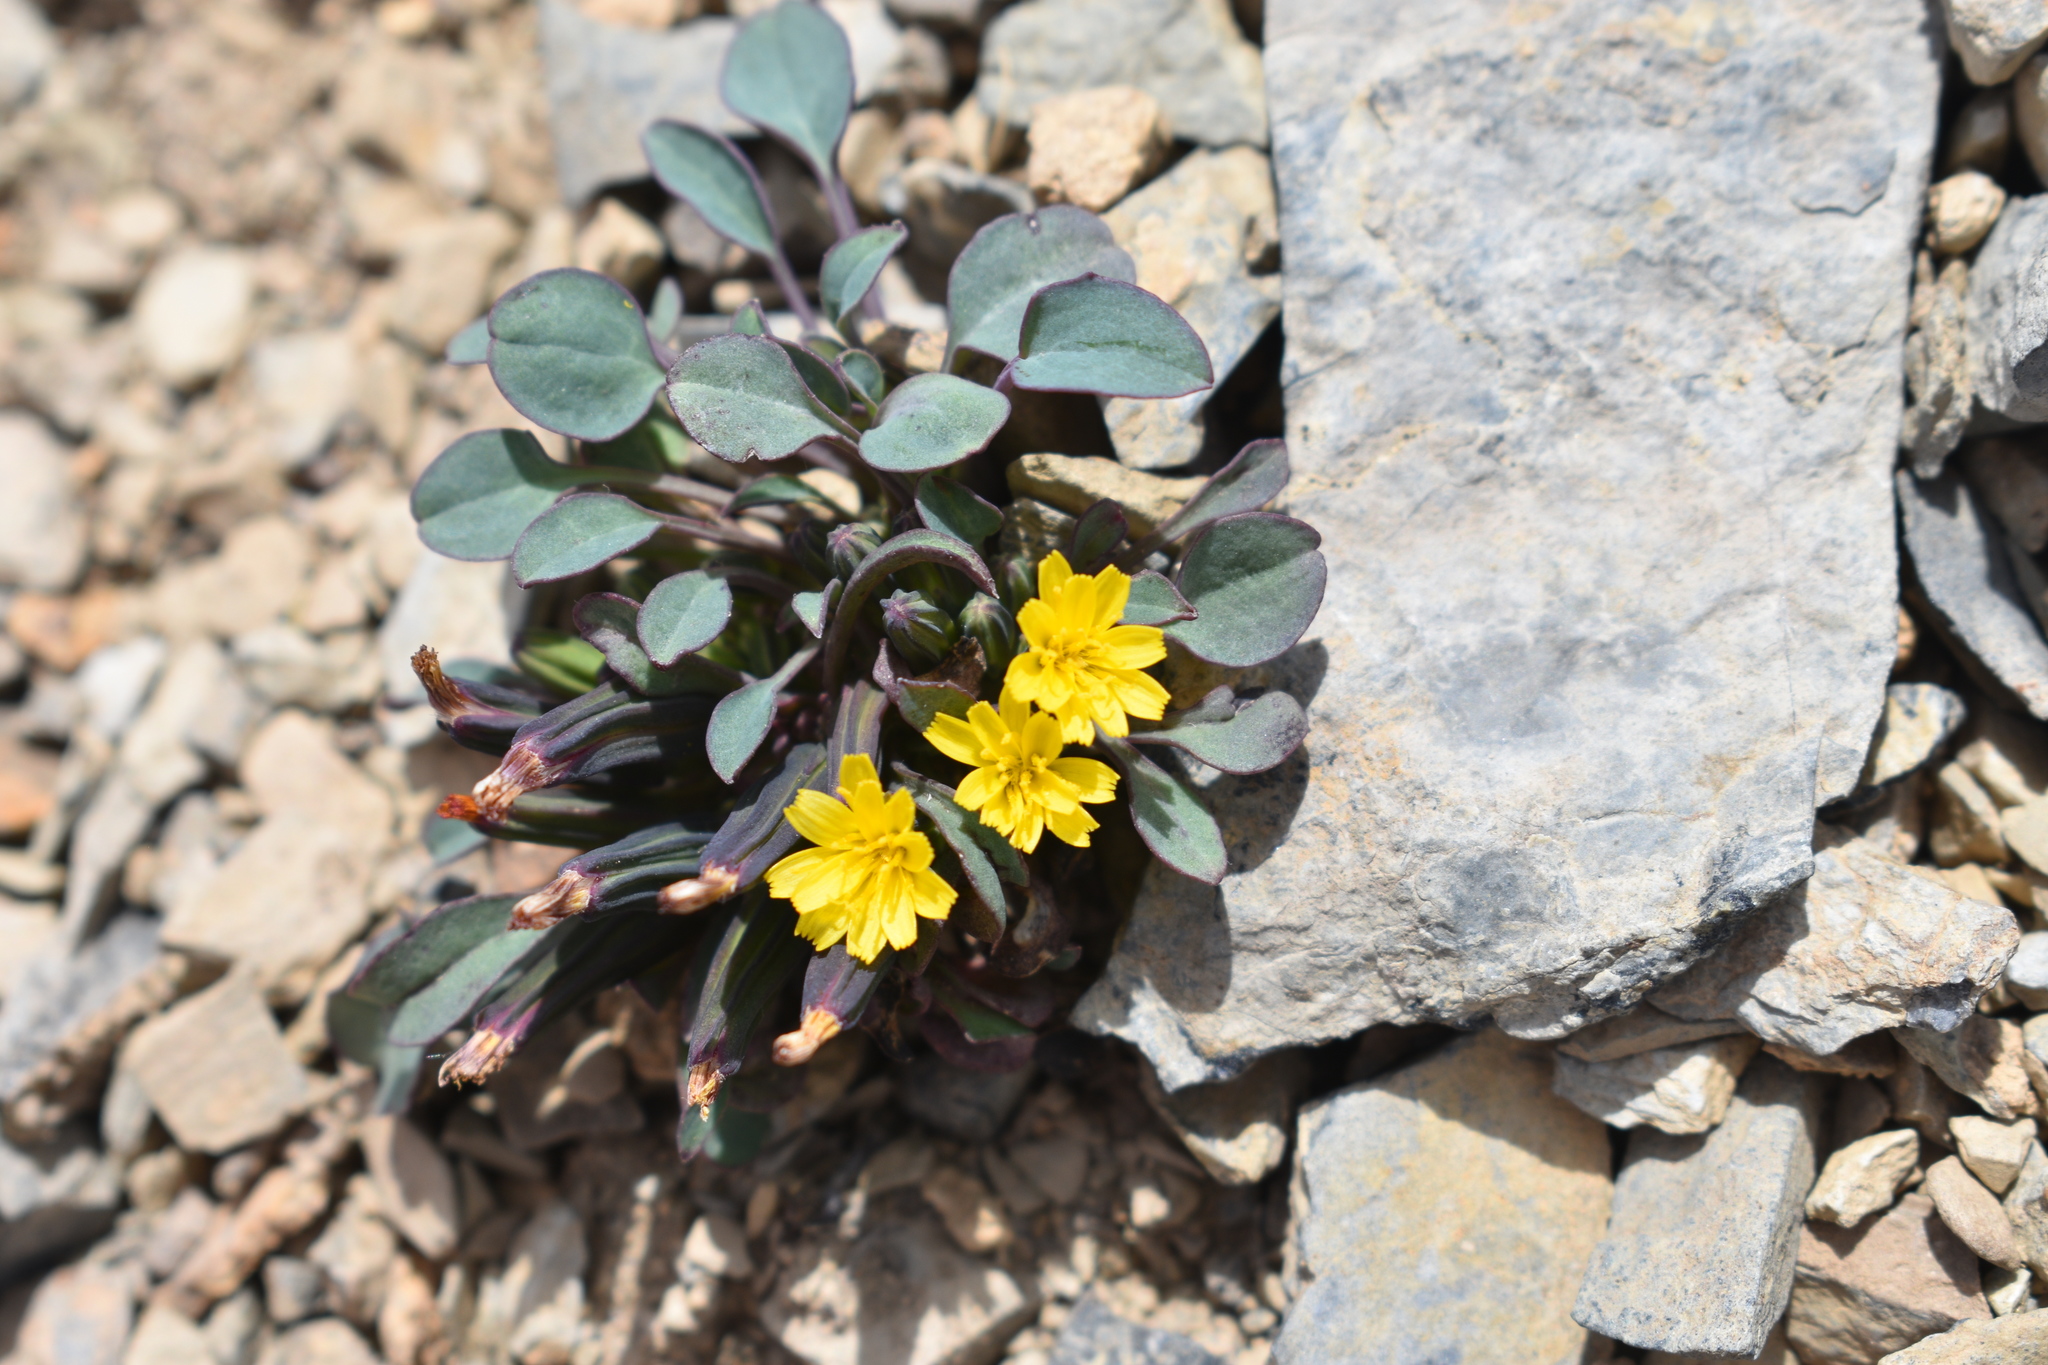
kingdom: Plantae
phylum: Tracheophyta
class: Magnoliopsida
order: Asterales
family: Asteraceae
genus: Askellia
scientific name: Askellia pygmaea
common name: Dwarf alpine hawksbeard
